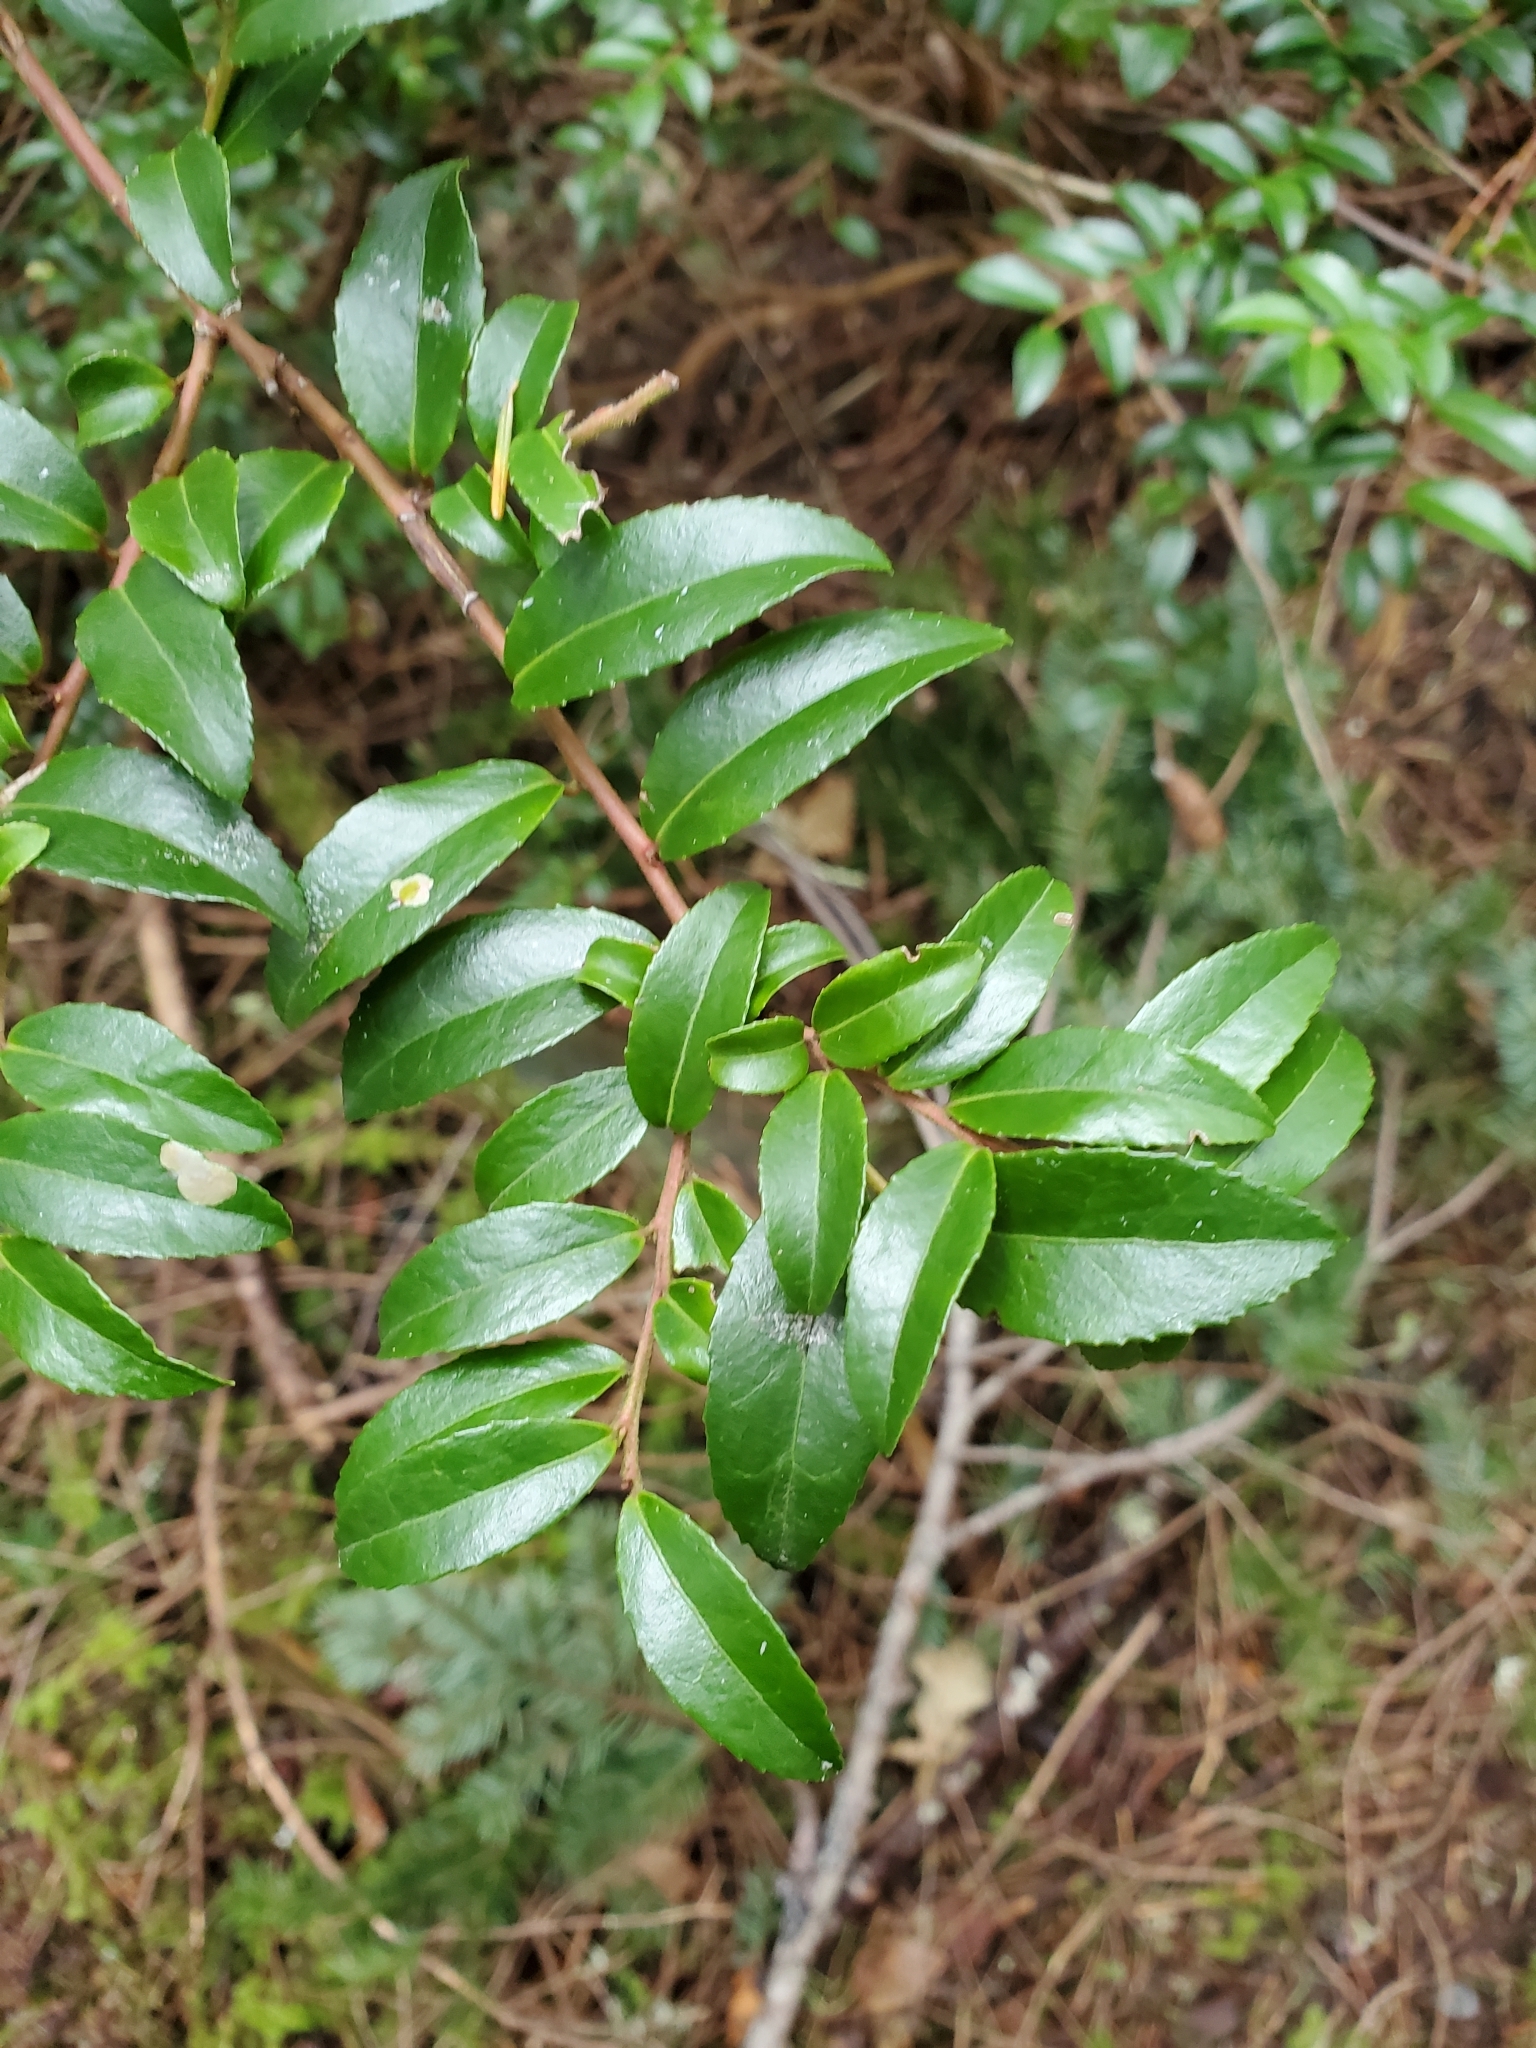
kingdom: Plantae
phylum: Tracheophyta
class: Magnoliopsida
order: Ericales
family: Ericaceae
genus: Vaccinium
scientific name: Vaccinium ovatum
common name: California-huckleberry
